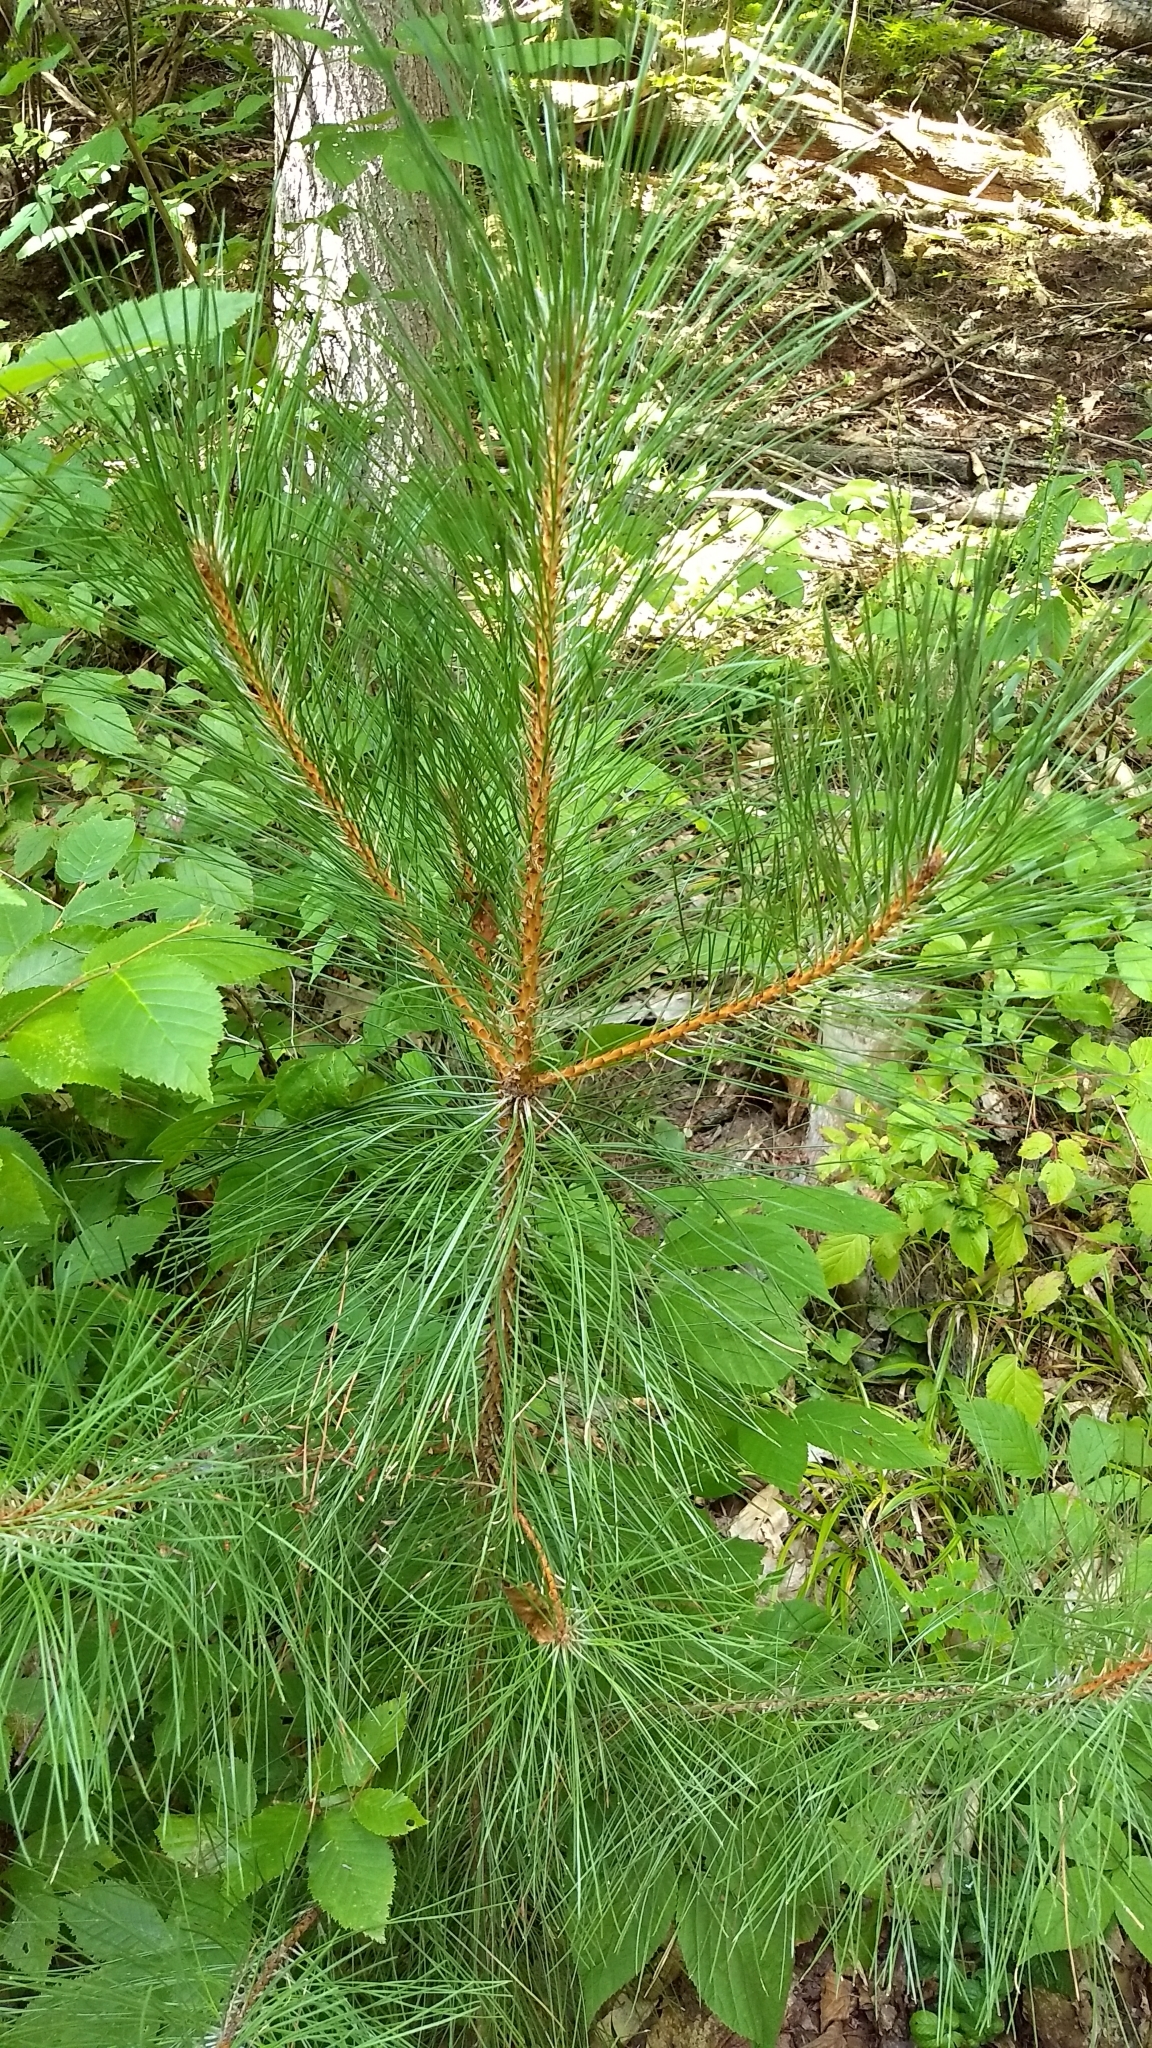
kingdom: Plantae
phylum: Tracheophyta
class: Pinopsida
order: Pinales
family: Pinaceae
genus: Pinus
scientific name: Pinus resinosa
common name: Norway pine
